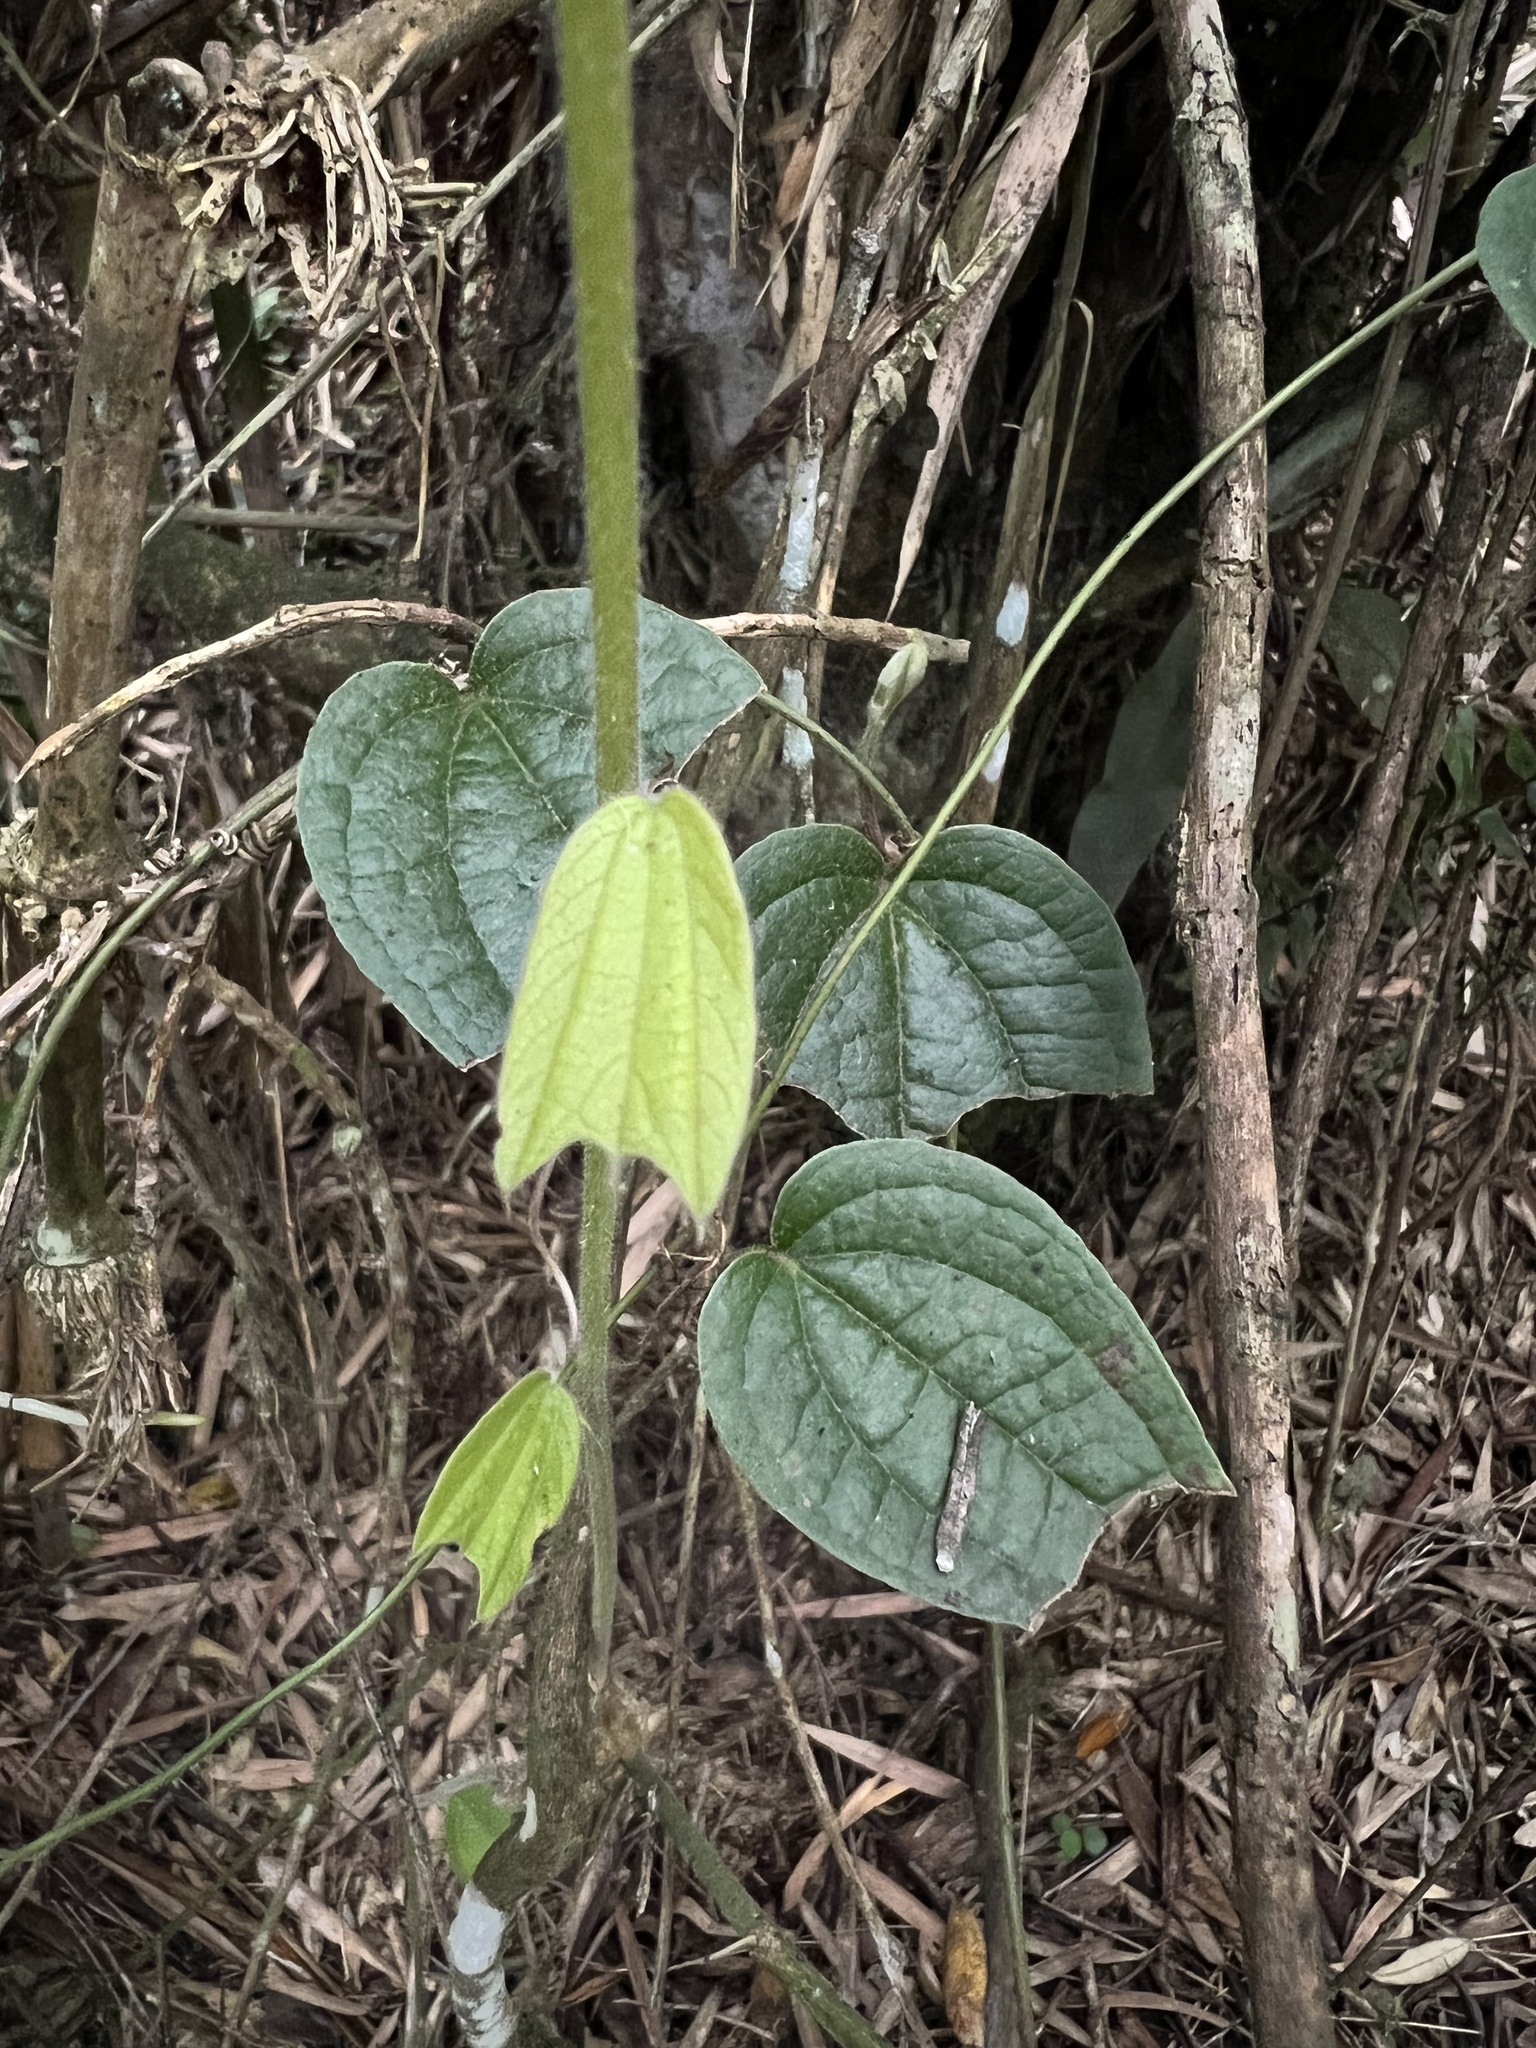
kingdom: Plantae
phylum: Tracheophyta
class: Magnoliopsida
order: Malpighiales
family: Passifloraceae
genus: Passiflora
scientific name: Passiflora bogotensis
